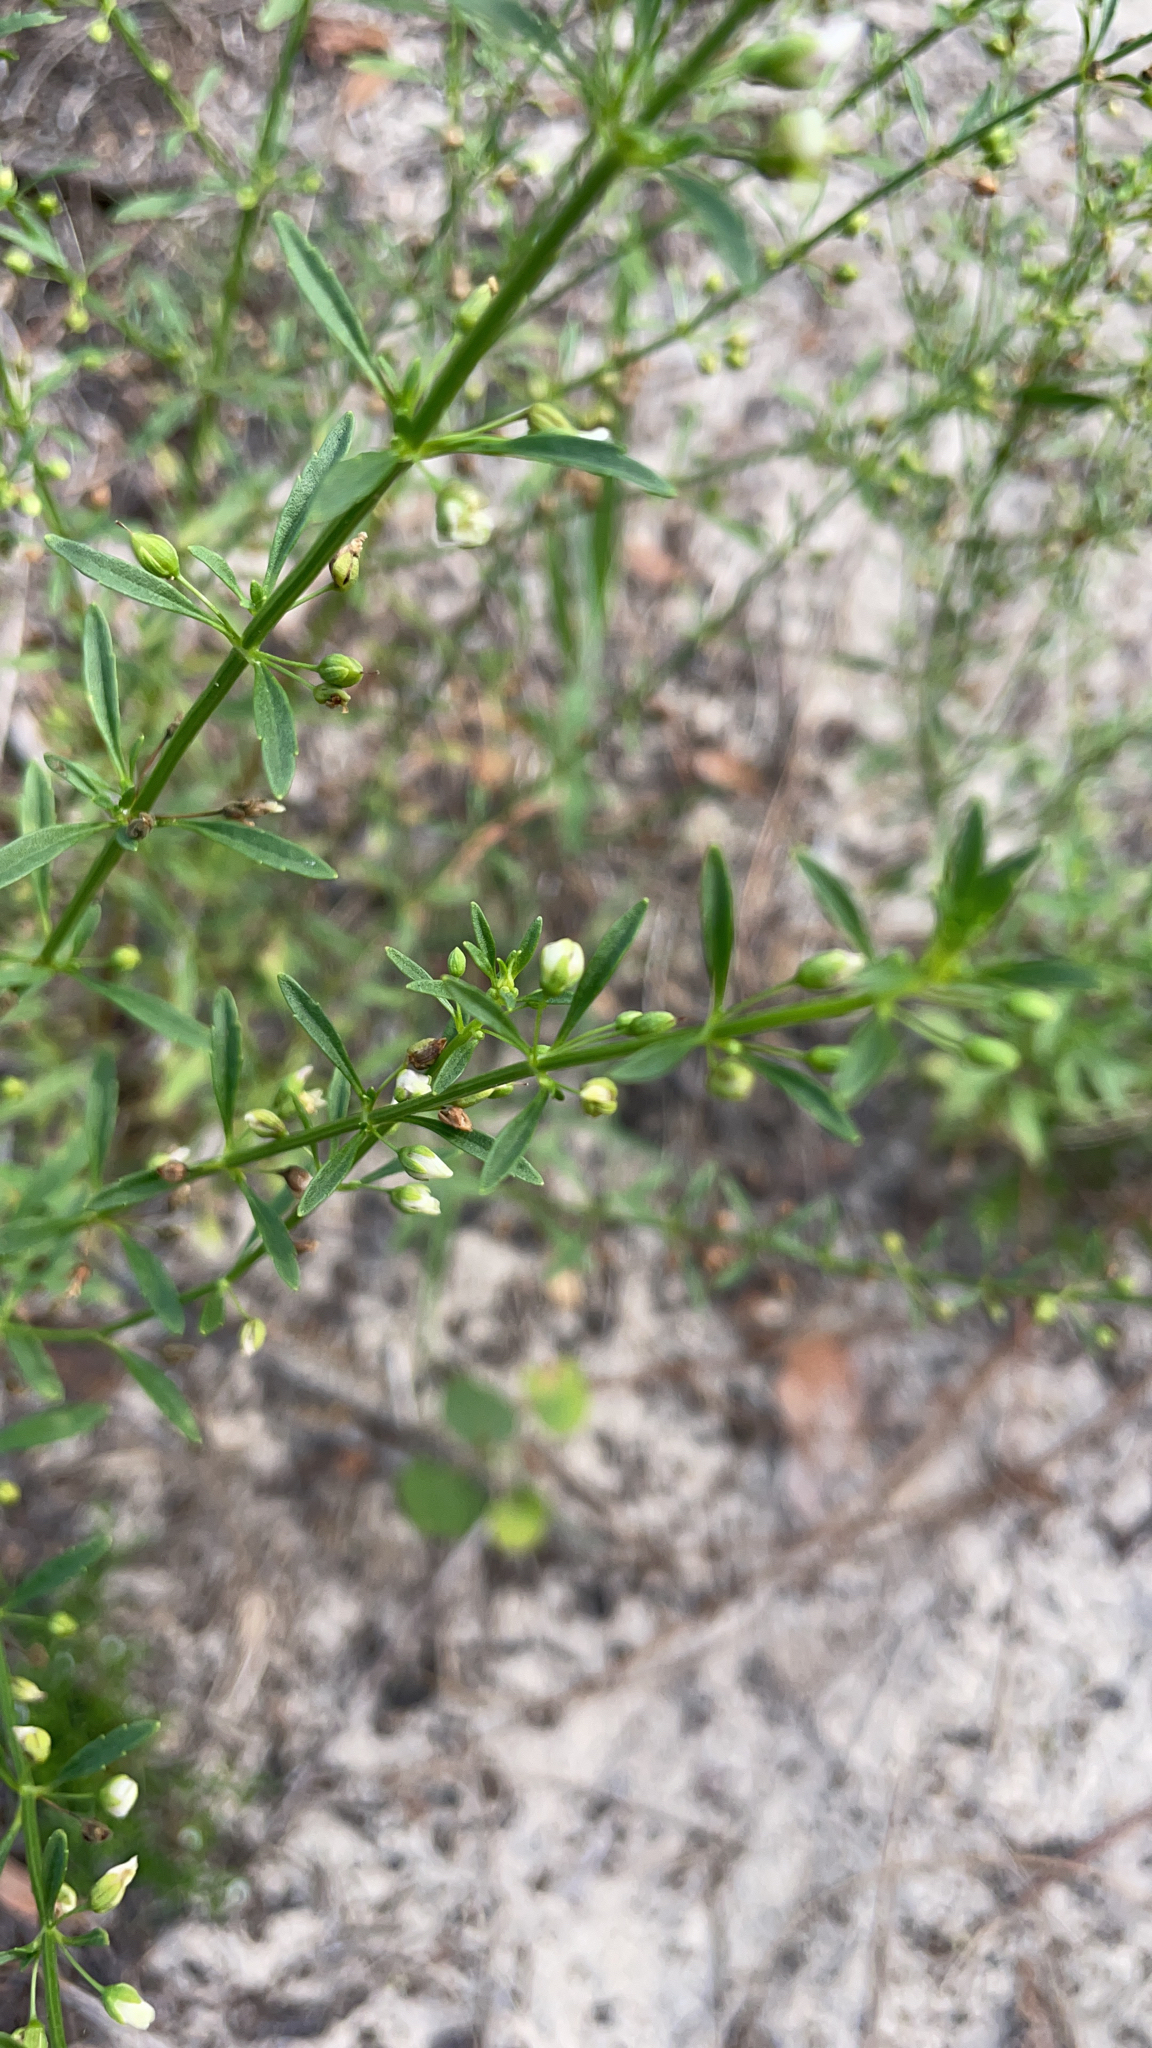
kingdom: Plantae
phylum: Tracheophyta
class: Magnoliopsida
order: Lamiales
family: Plantaginaceae
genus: Scoparia
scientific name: Scoparia dulcis
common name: Scoparia-weed
